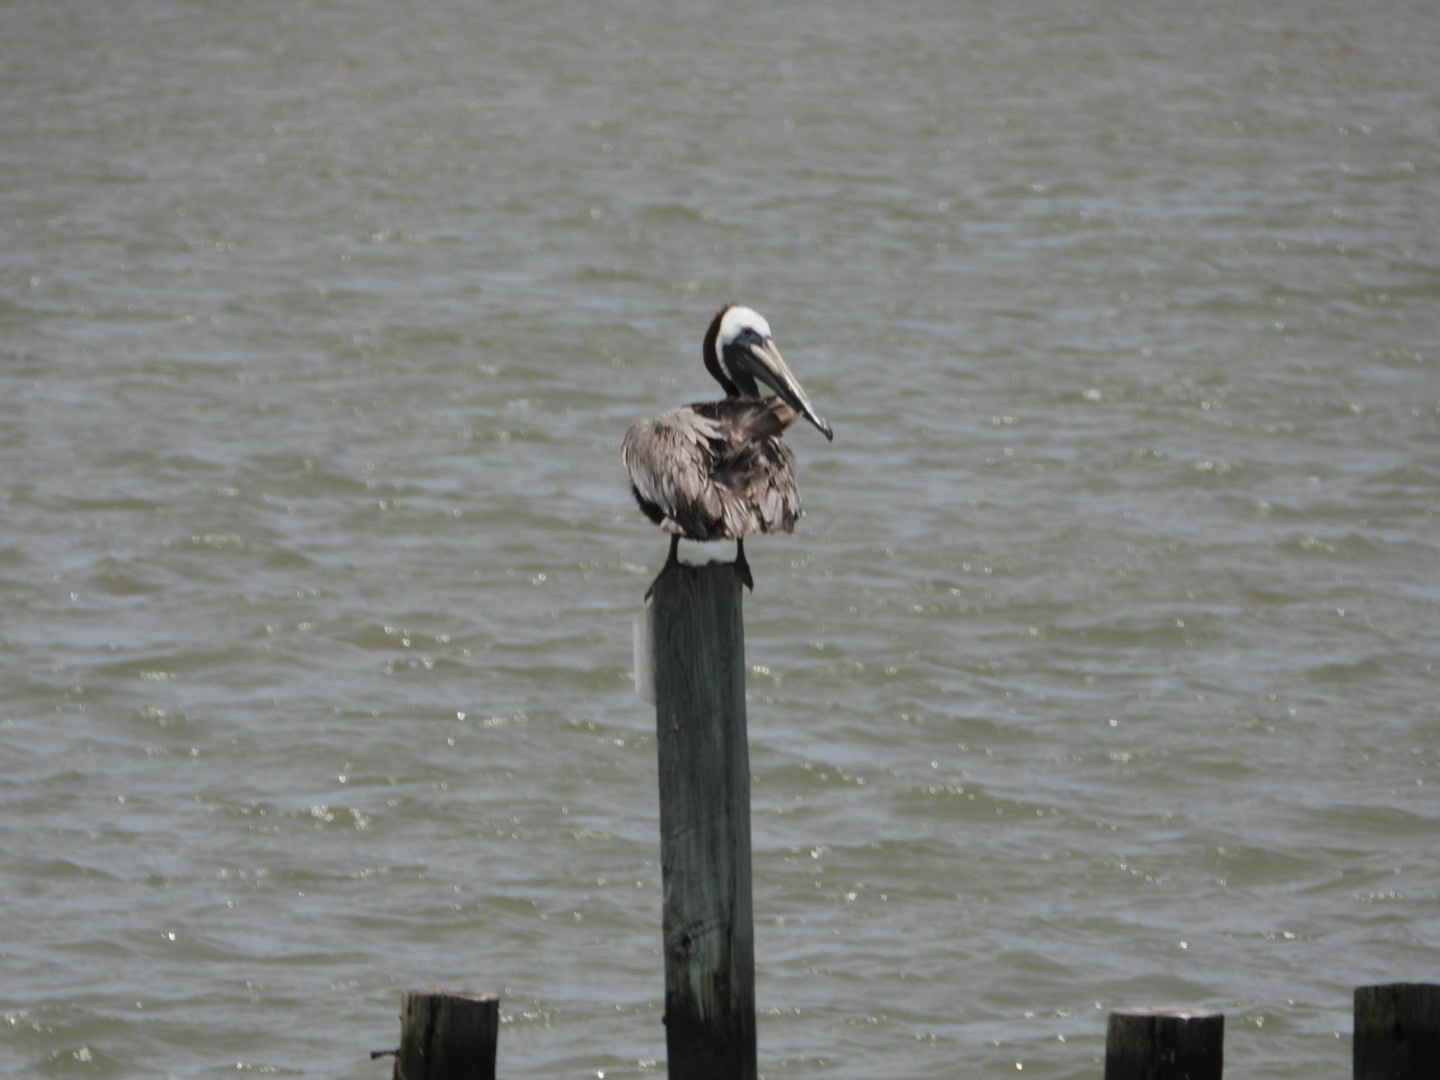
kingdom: Animalia
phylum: Chordata
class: Aves
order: Pelecaniformes
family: Pelecanidae
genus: Pelecanus
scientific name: Pelecanus occidentalis
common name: Brown pelican
